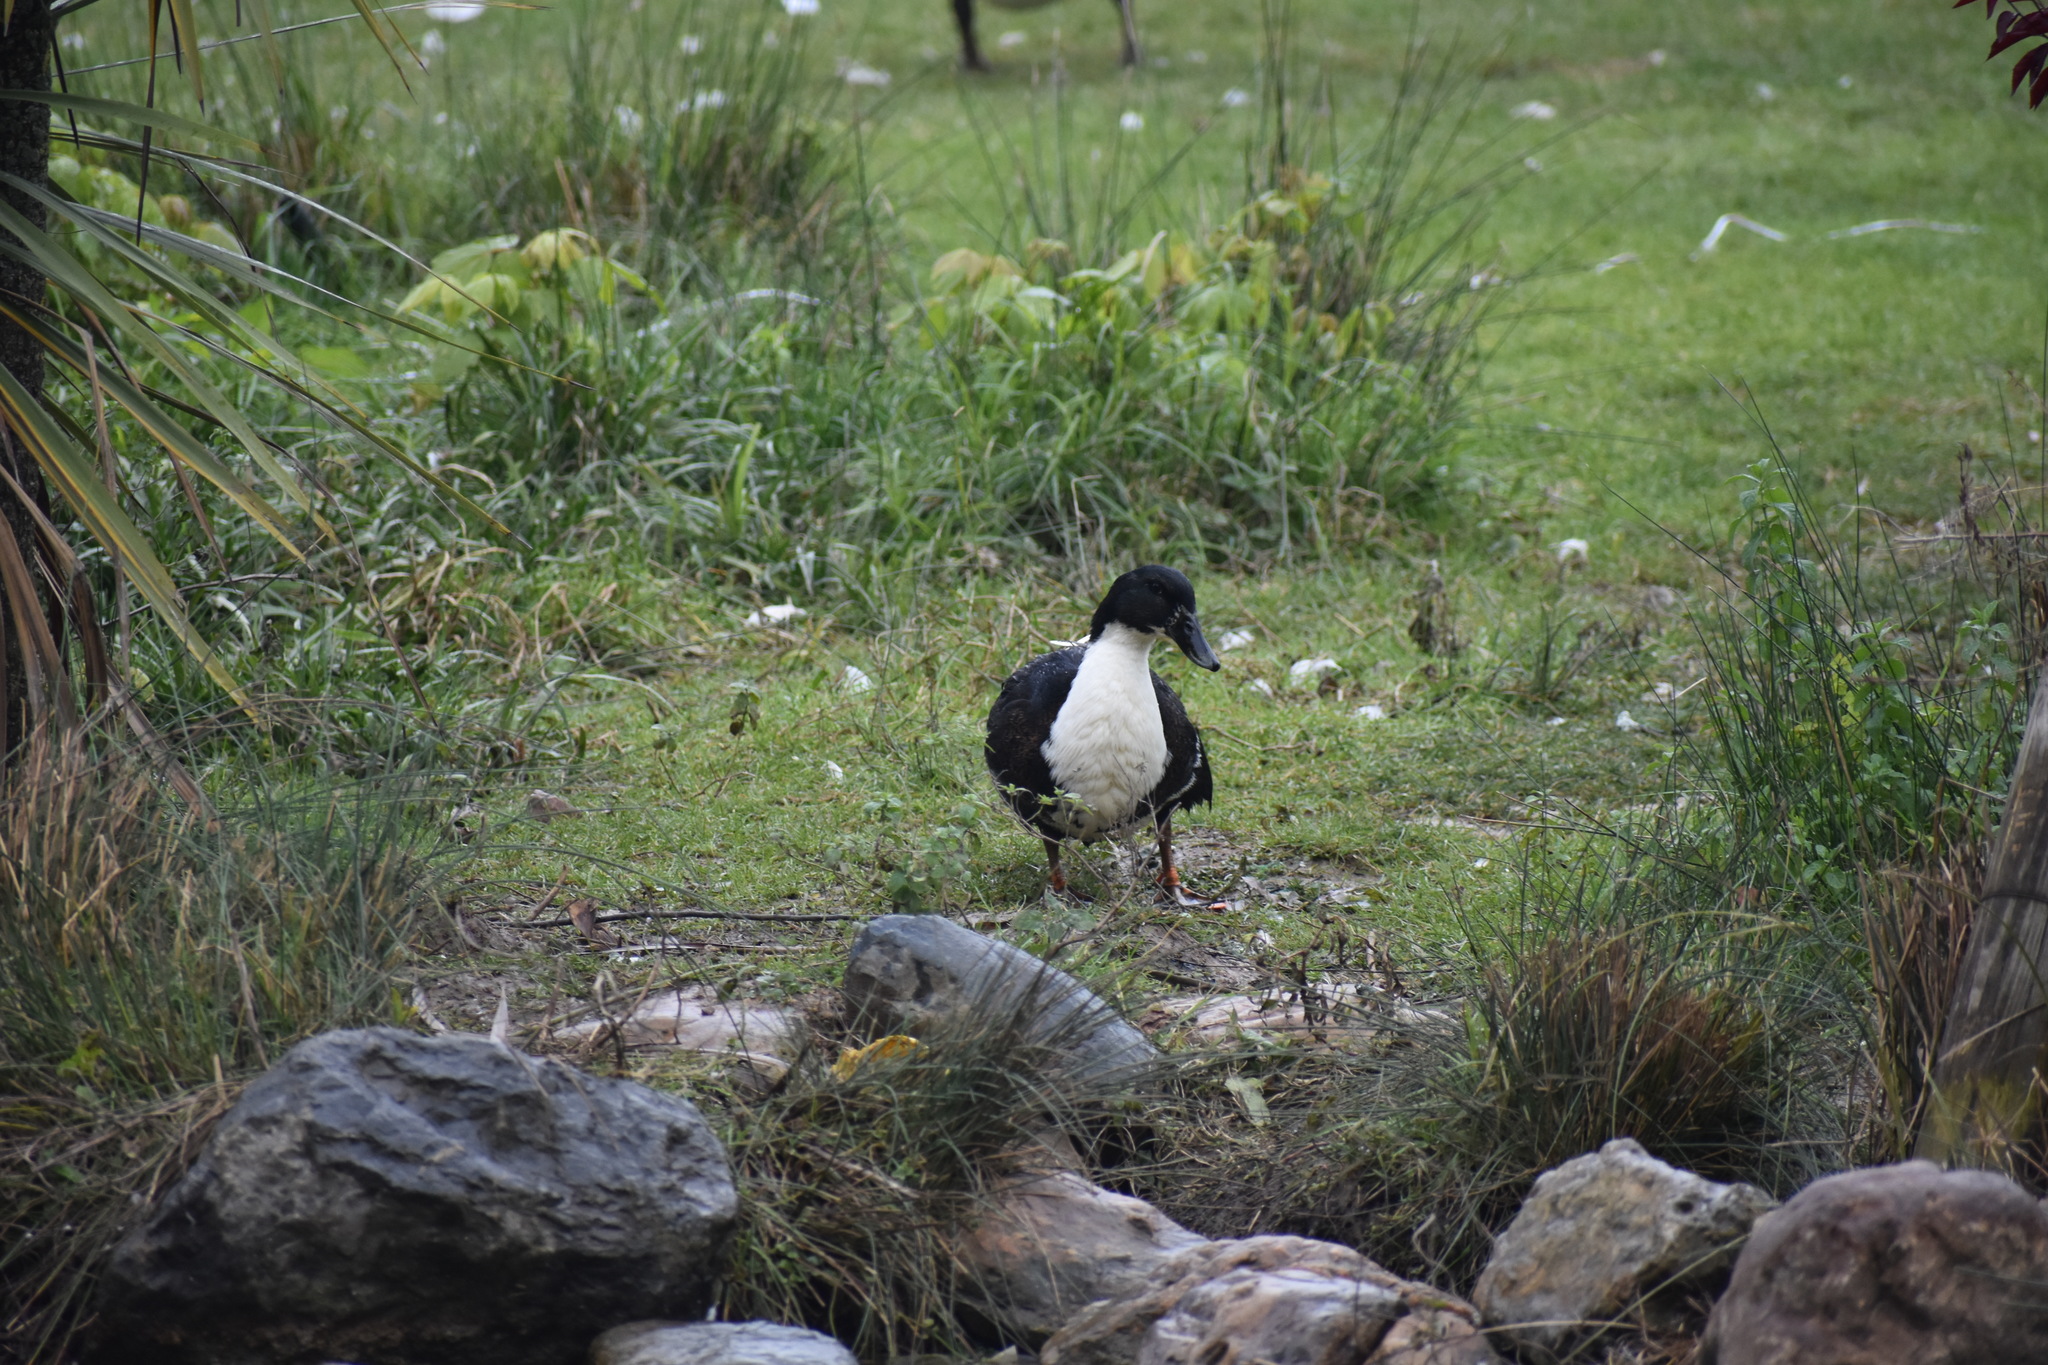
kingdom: Animalia
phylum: Chordata
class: Aves
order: Anseriformes
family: Anatidae
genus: Anas
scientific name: Anas platyrhynchos
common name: Mallard
